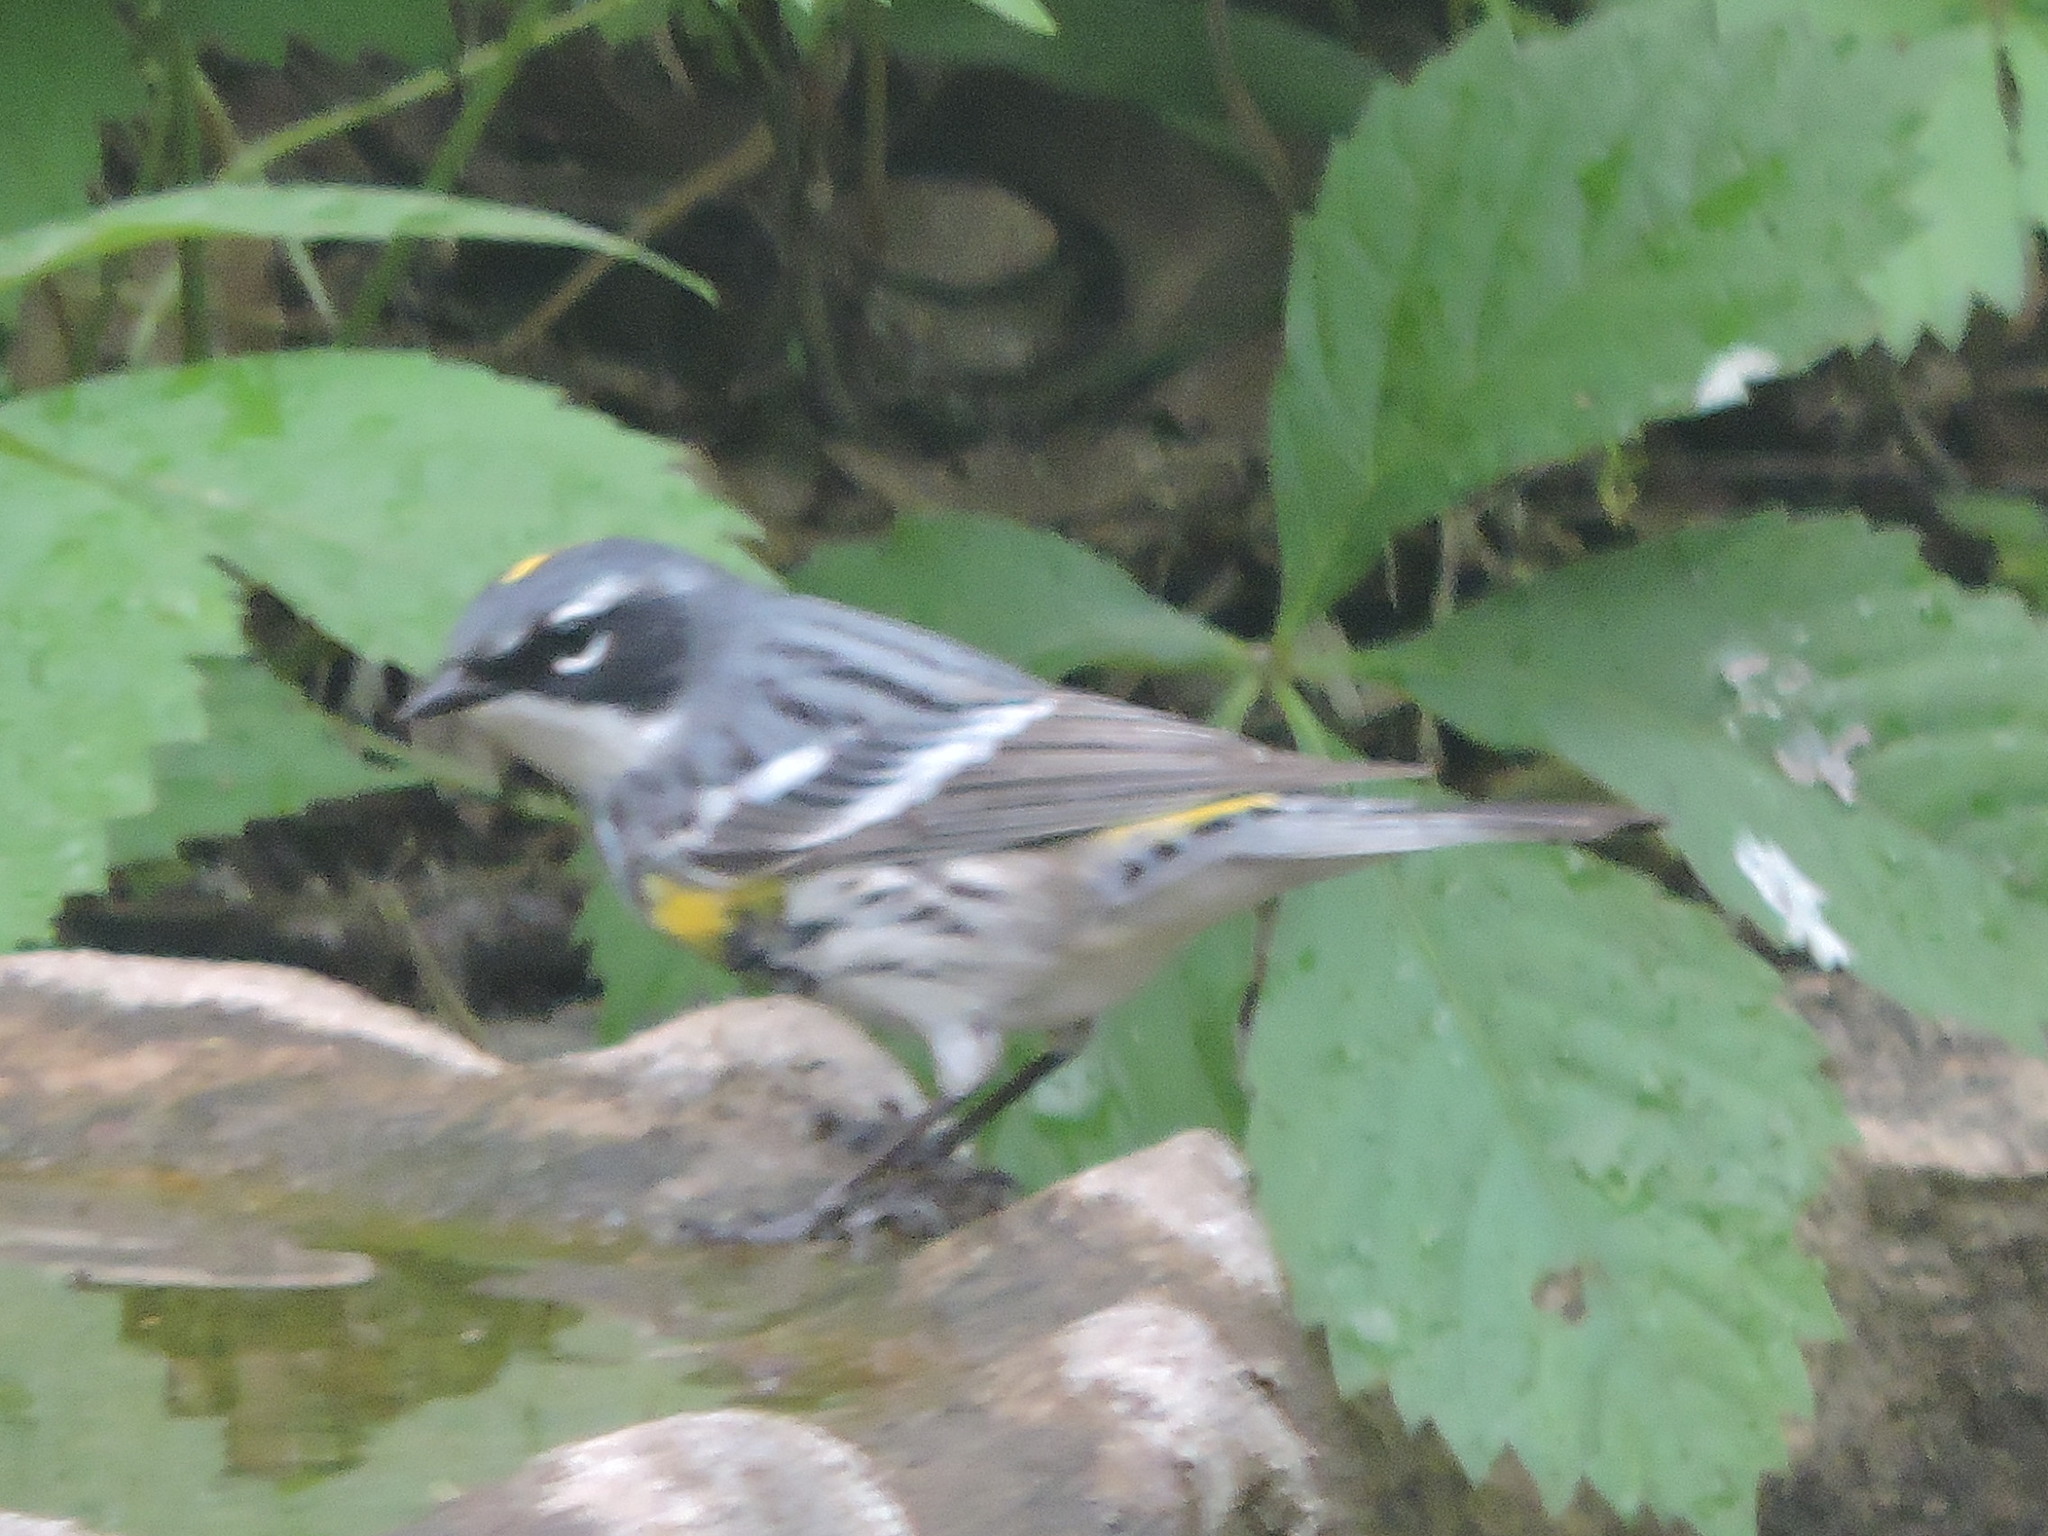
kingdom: Animalia
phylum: Chordata
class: Aves
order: Passeriformes
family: Parulidae
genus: Setophaga
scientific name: Setophaga coronata
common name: Myrtle warbler
